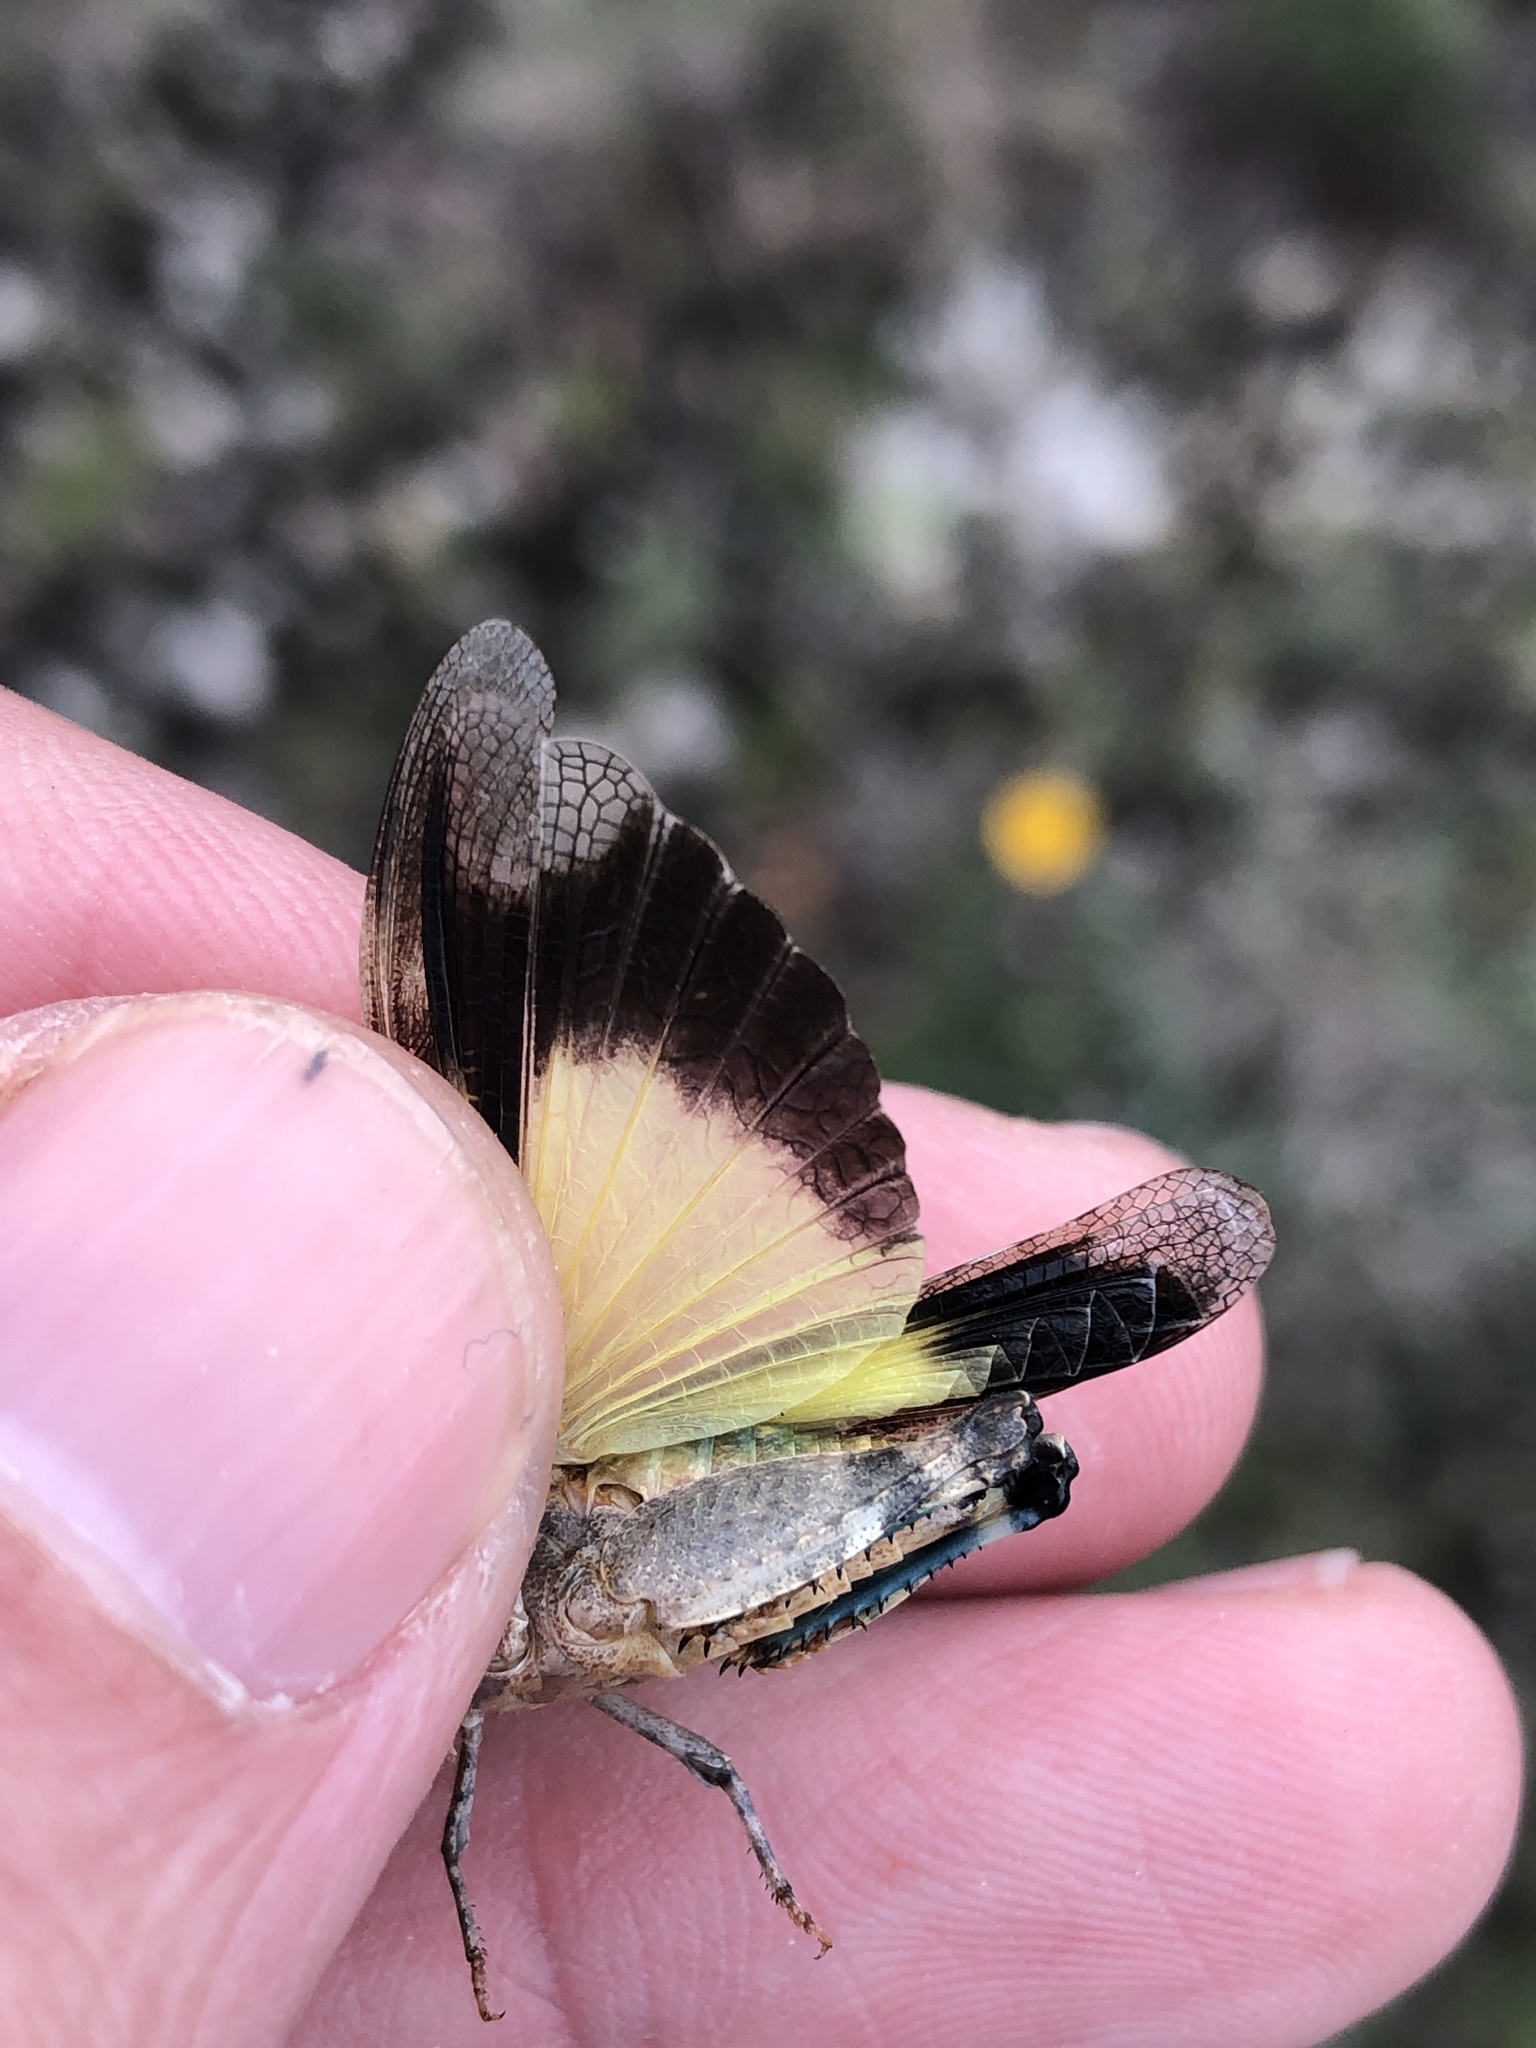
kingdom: Animalia
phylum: Arthropoda
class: Insecta
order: Orthoptera
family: Acrididae
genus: Lactista
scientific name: Lactista azteca
